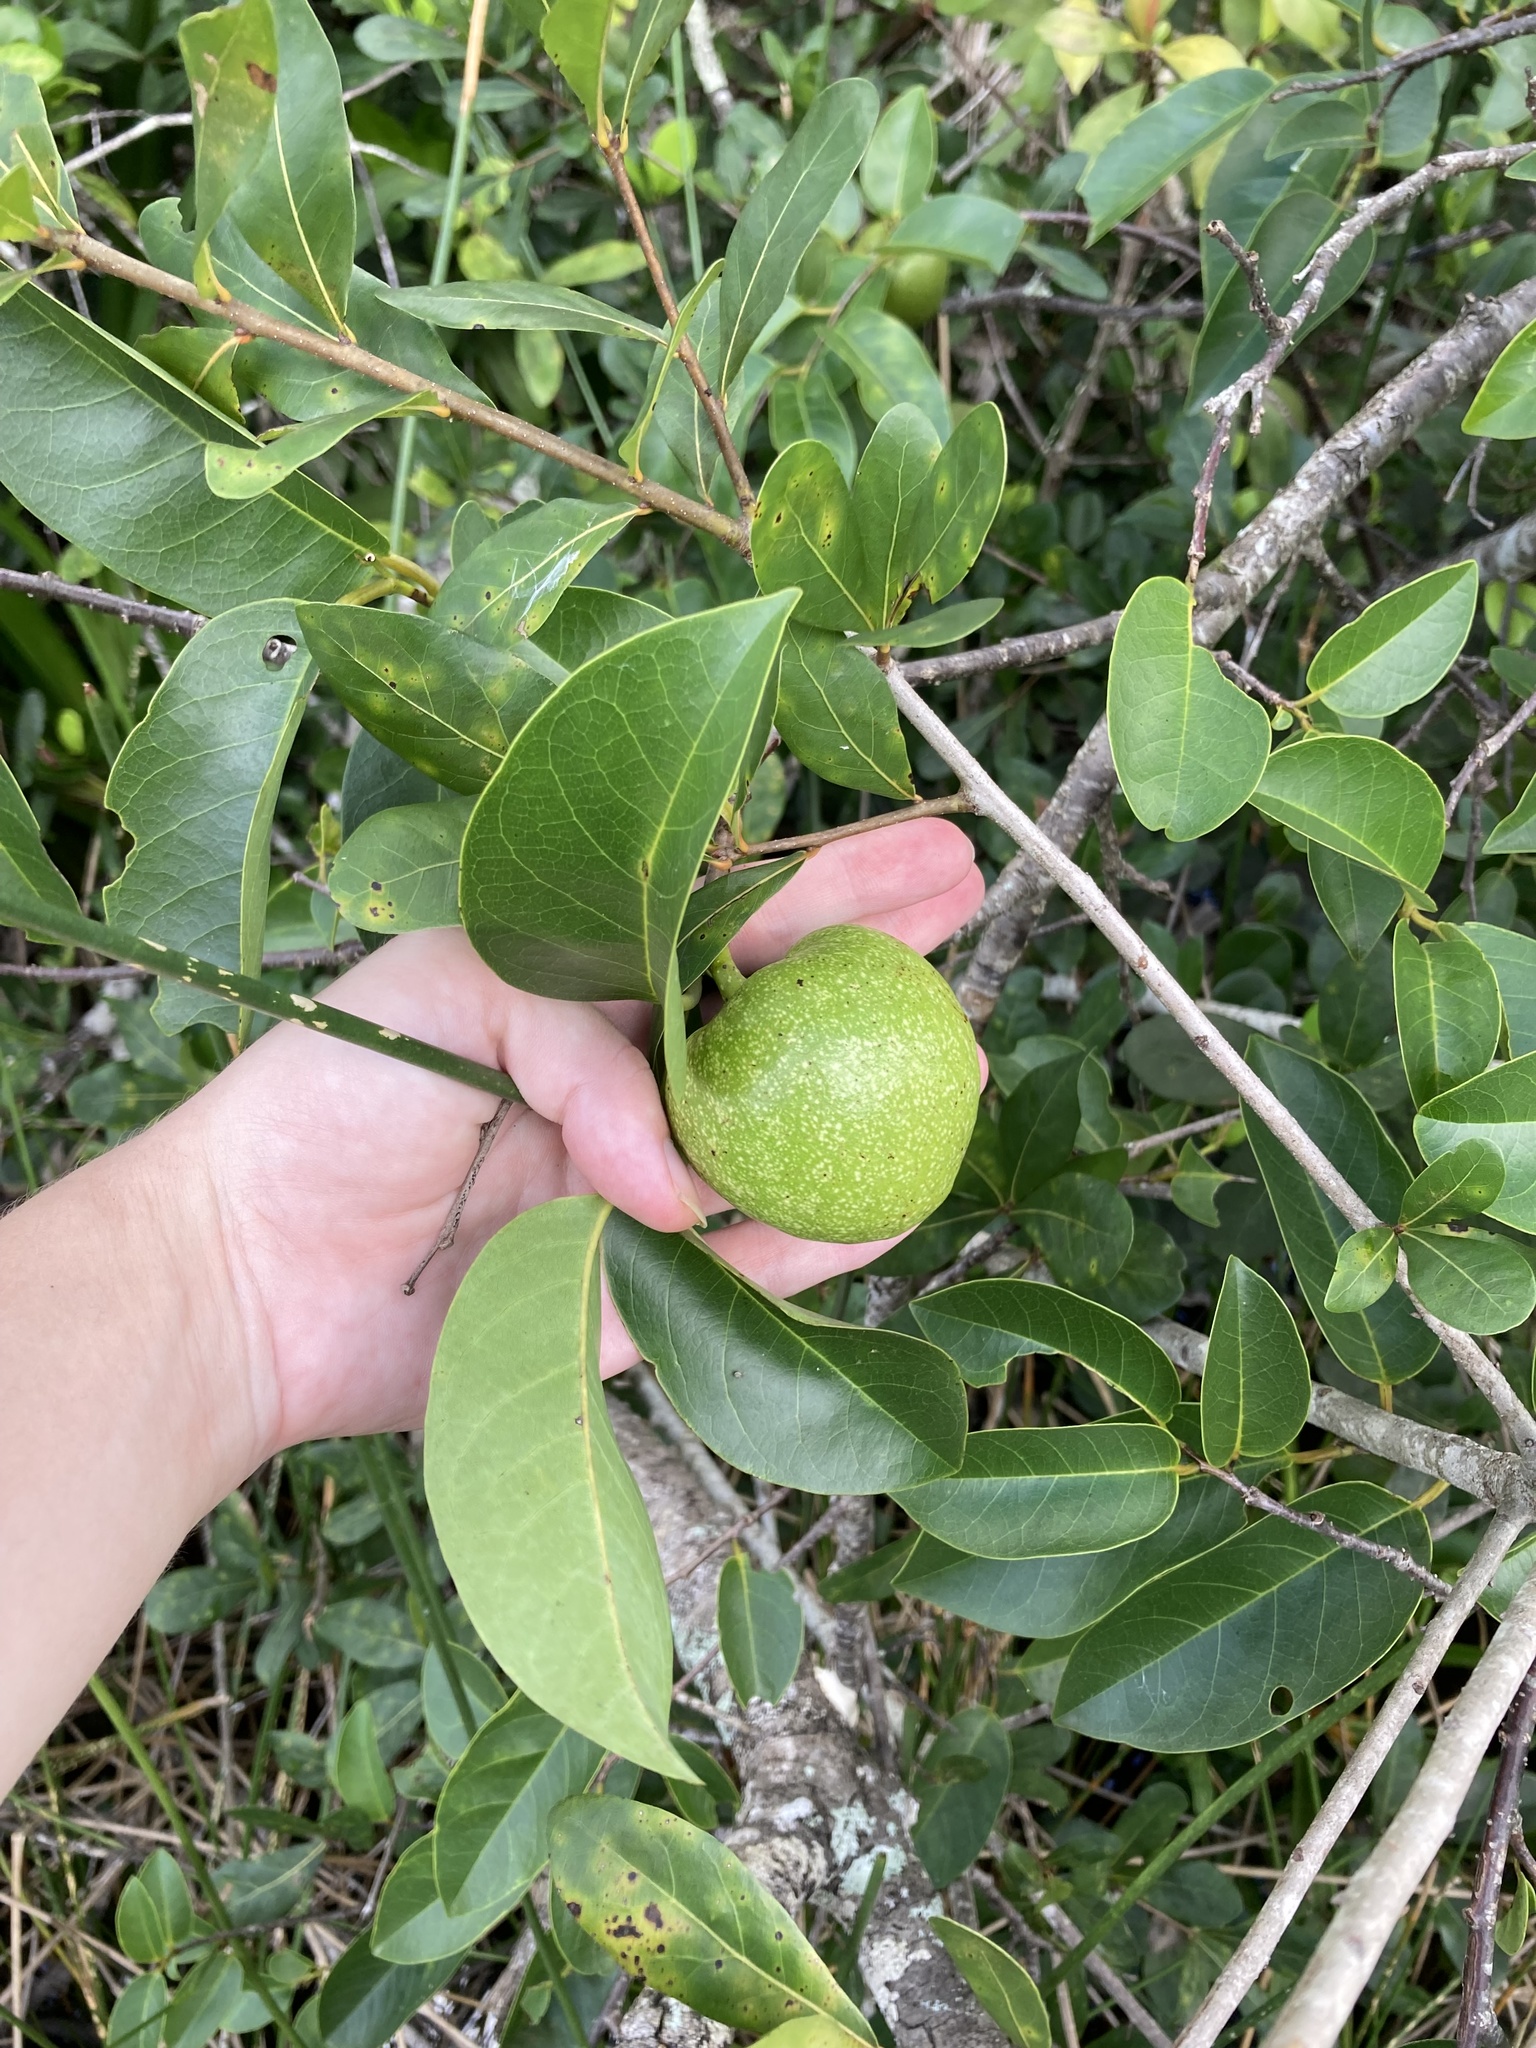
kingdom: Plantae
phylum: Tracheophyta
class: Magnoliopsida
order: Magnoliales
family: Annonaceae
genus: Annona
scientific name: Annona glabra
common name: Monkey apple
